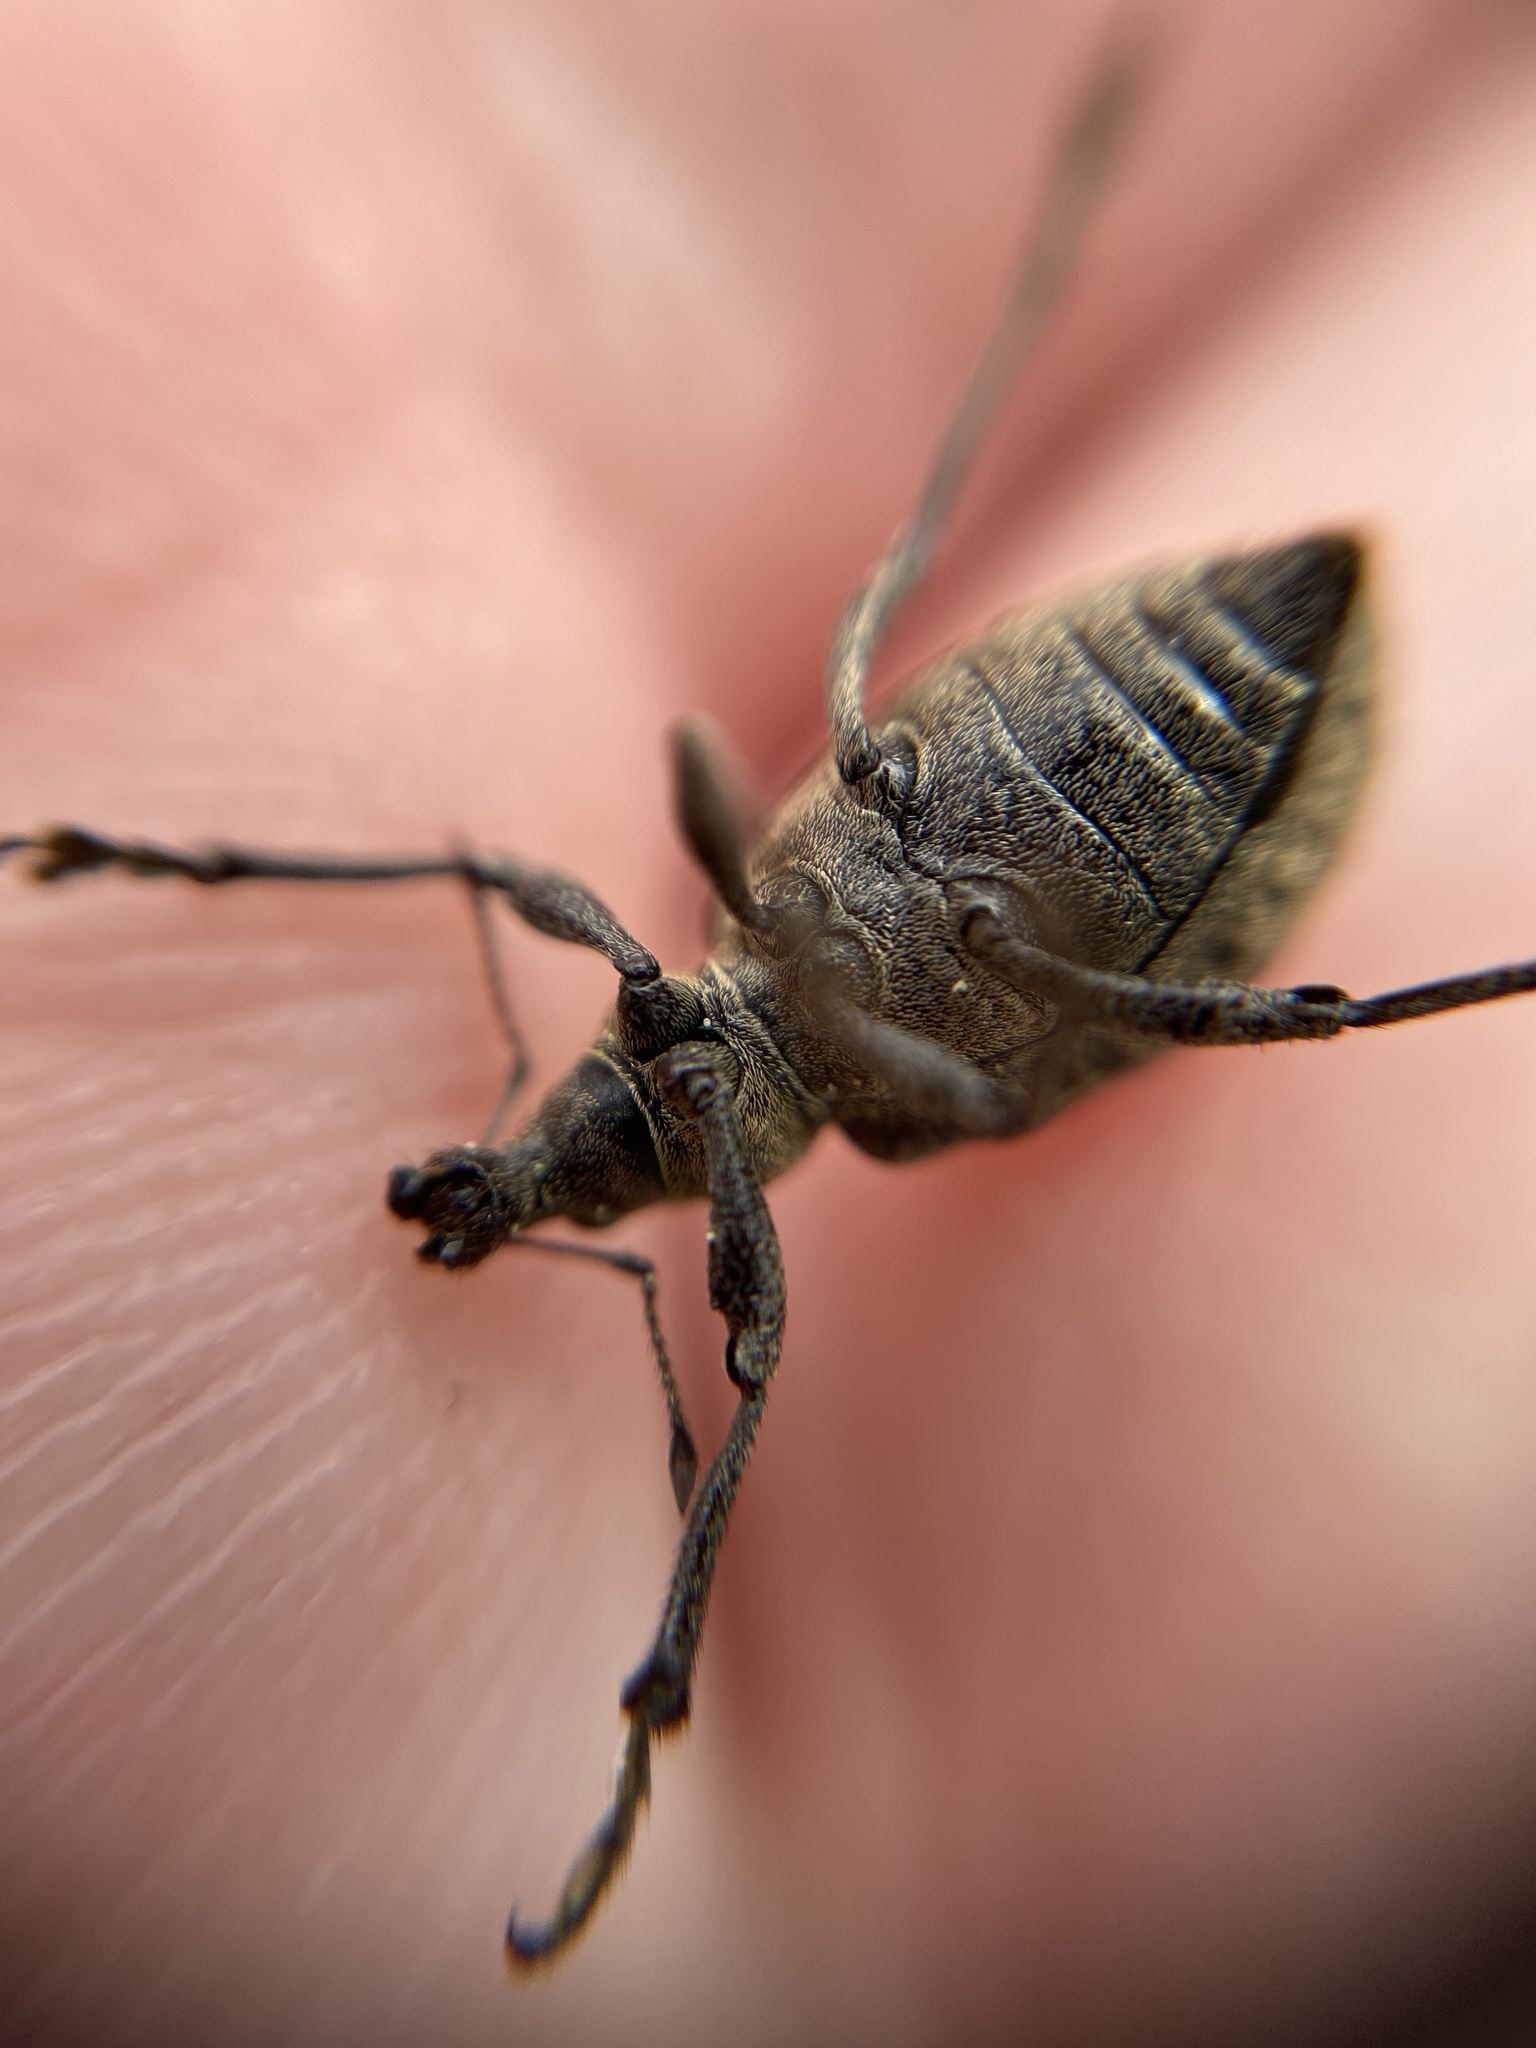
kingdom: Animalia
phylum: Arthropoda
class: Insecta
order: Coleoptera
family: Curculionidae
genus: Liophloeus
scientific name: Liophloeus tessulatus
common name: Weevil
